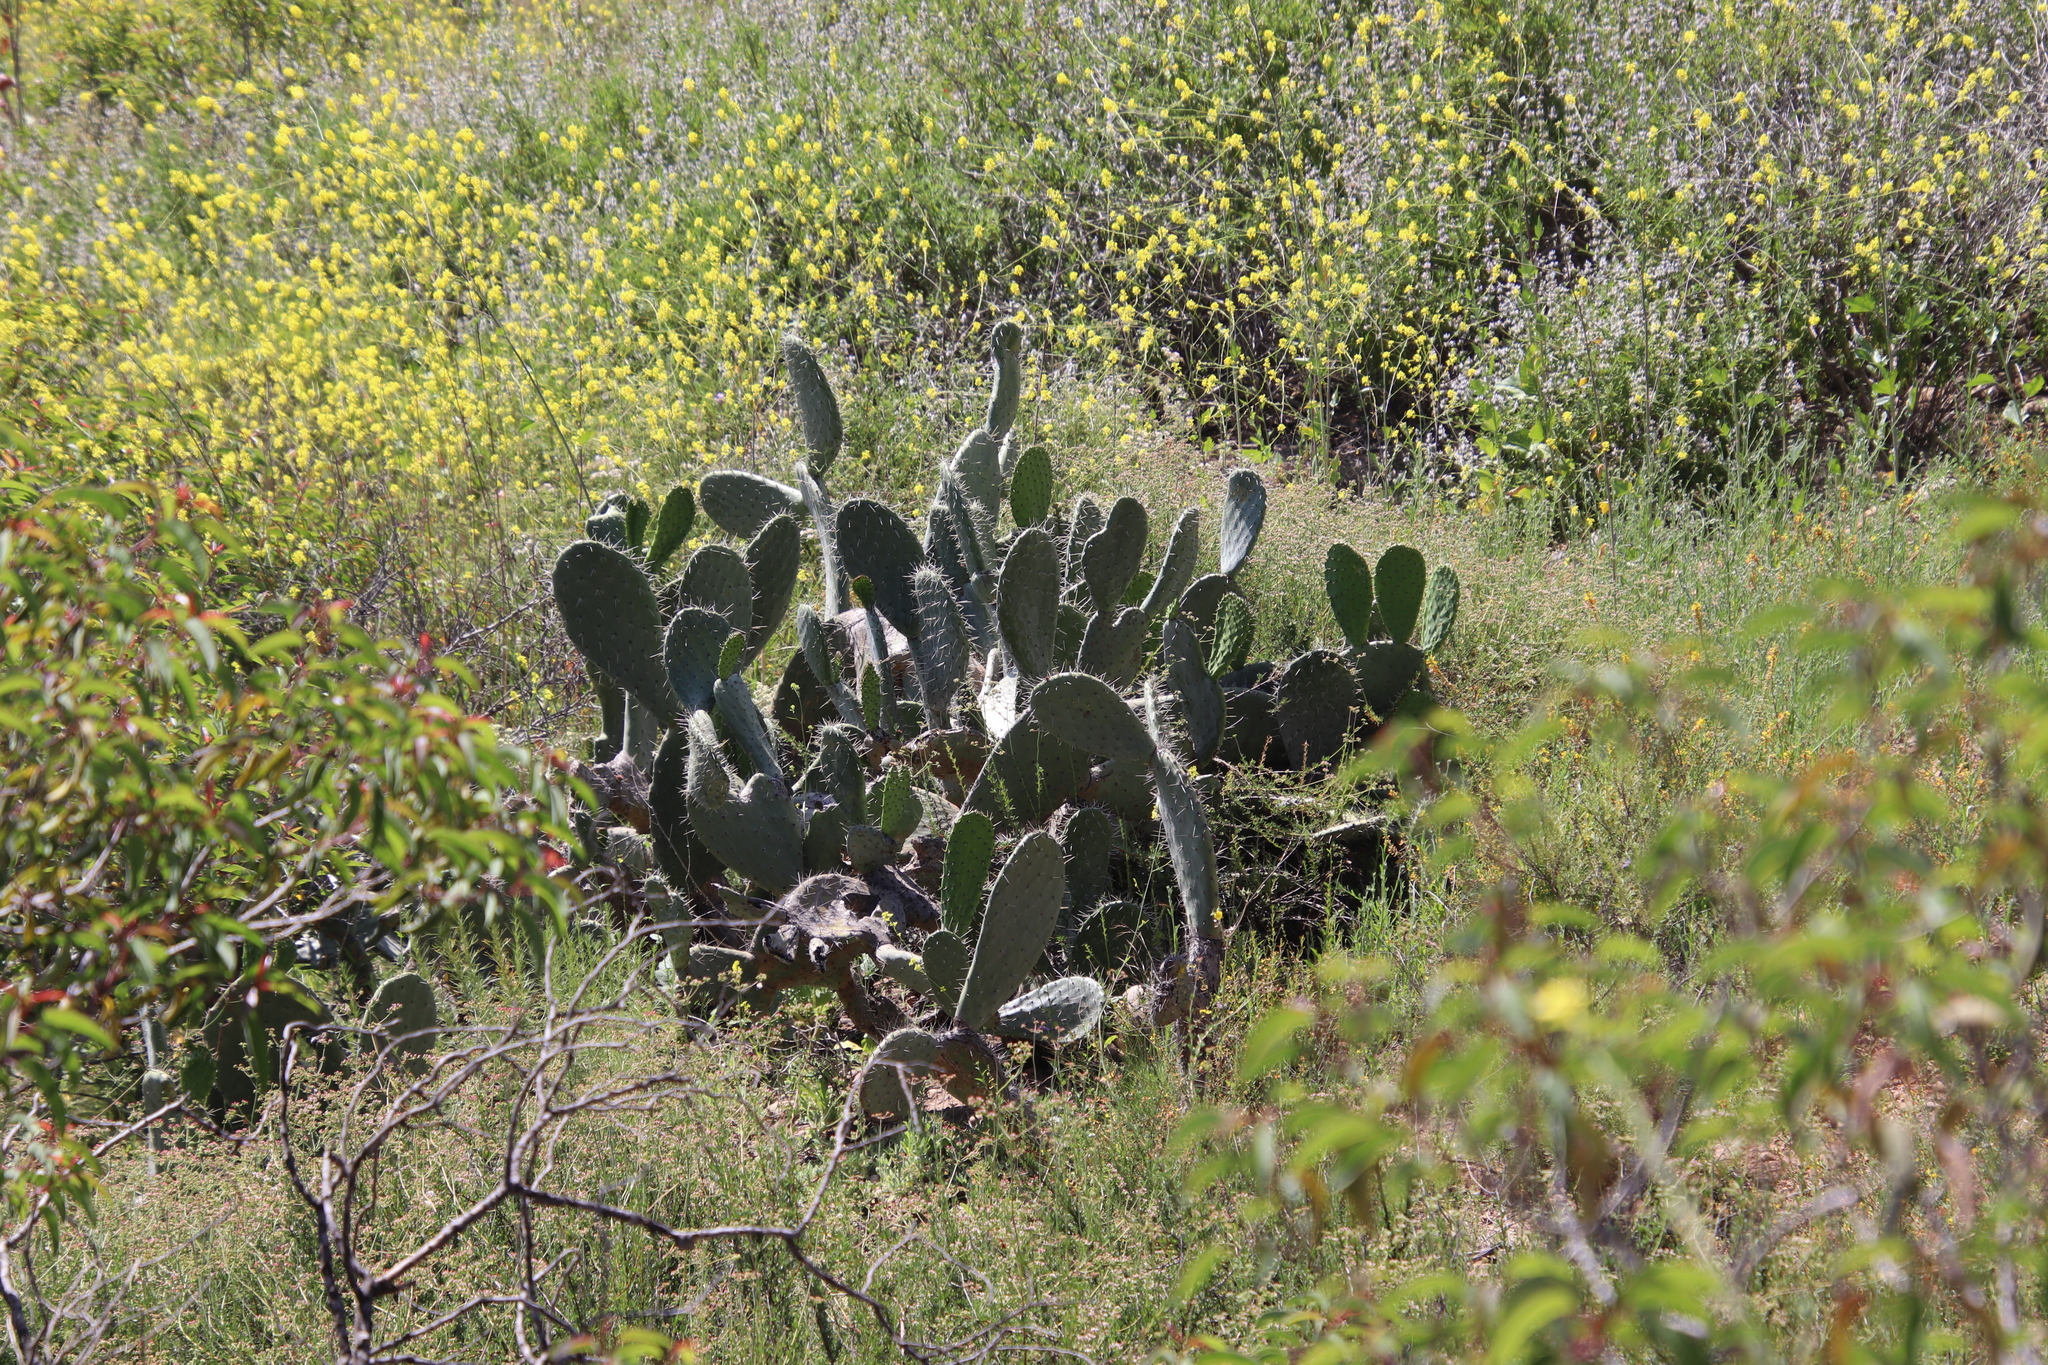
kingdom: Plantae
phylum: Tracheophyta
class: Magnoliopsida
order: Caryophyllales
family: Cactaceae
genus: Opuntia
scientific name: Opuntia ficus-indica
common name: Barbary fig
